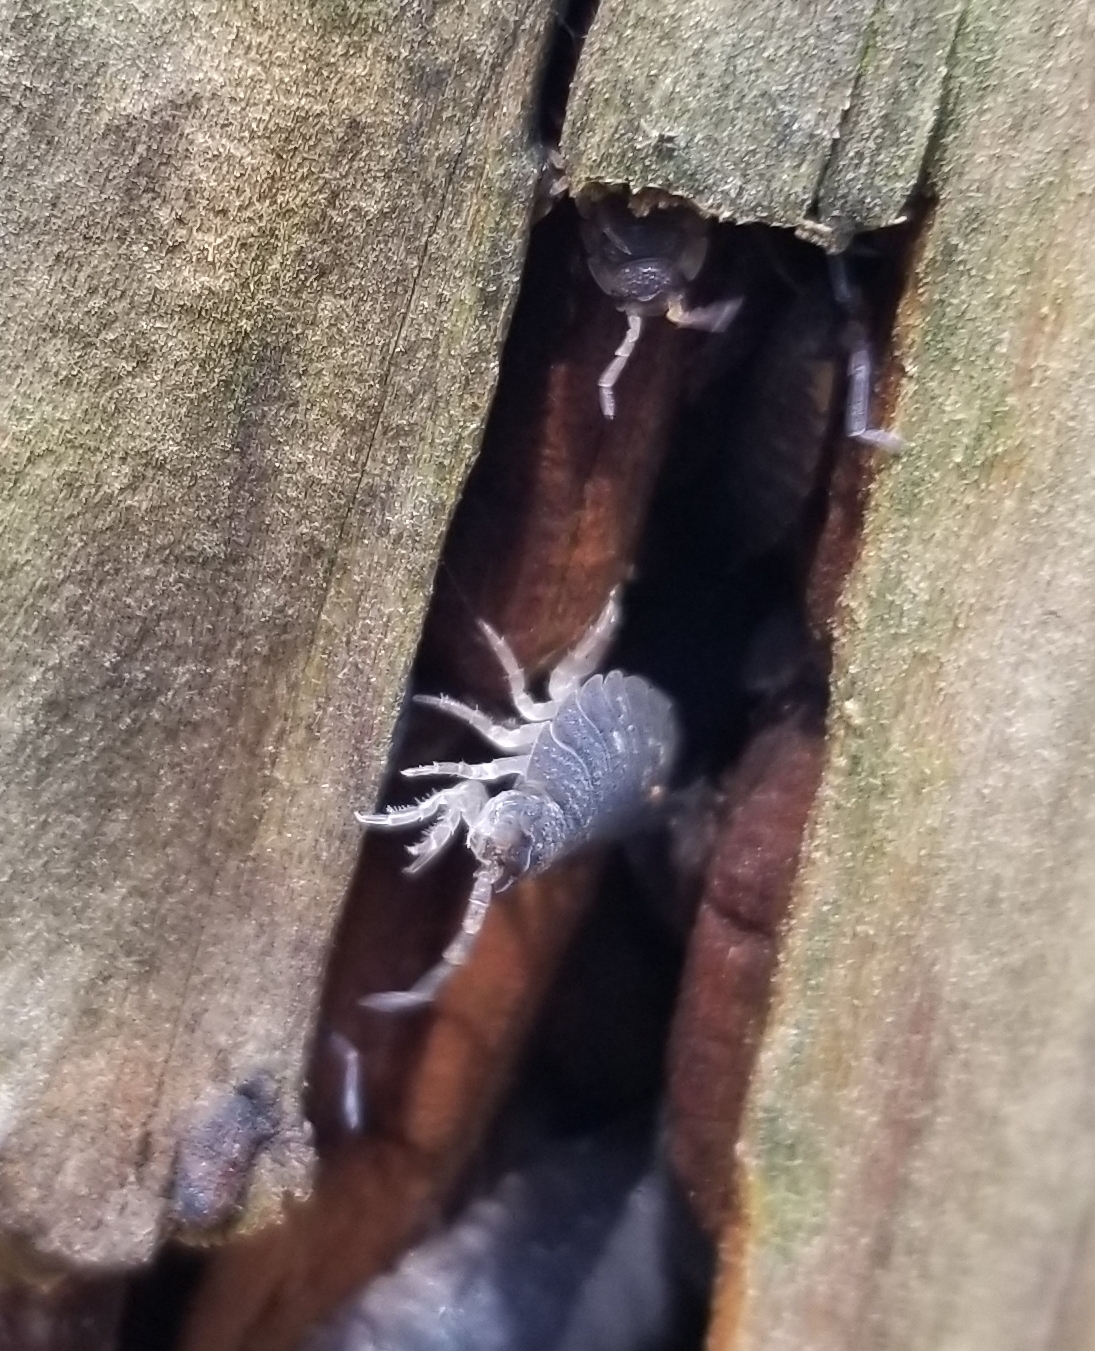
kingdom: Animalia
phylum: Arthropoda
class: Malacostraca
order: Isopoda
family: Porcellionidae
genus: Porcellio
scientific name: Porcellio scaber
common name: Common rough woodlouse
